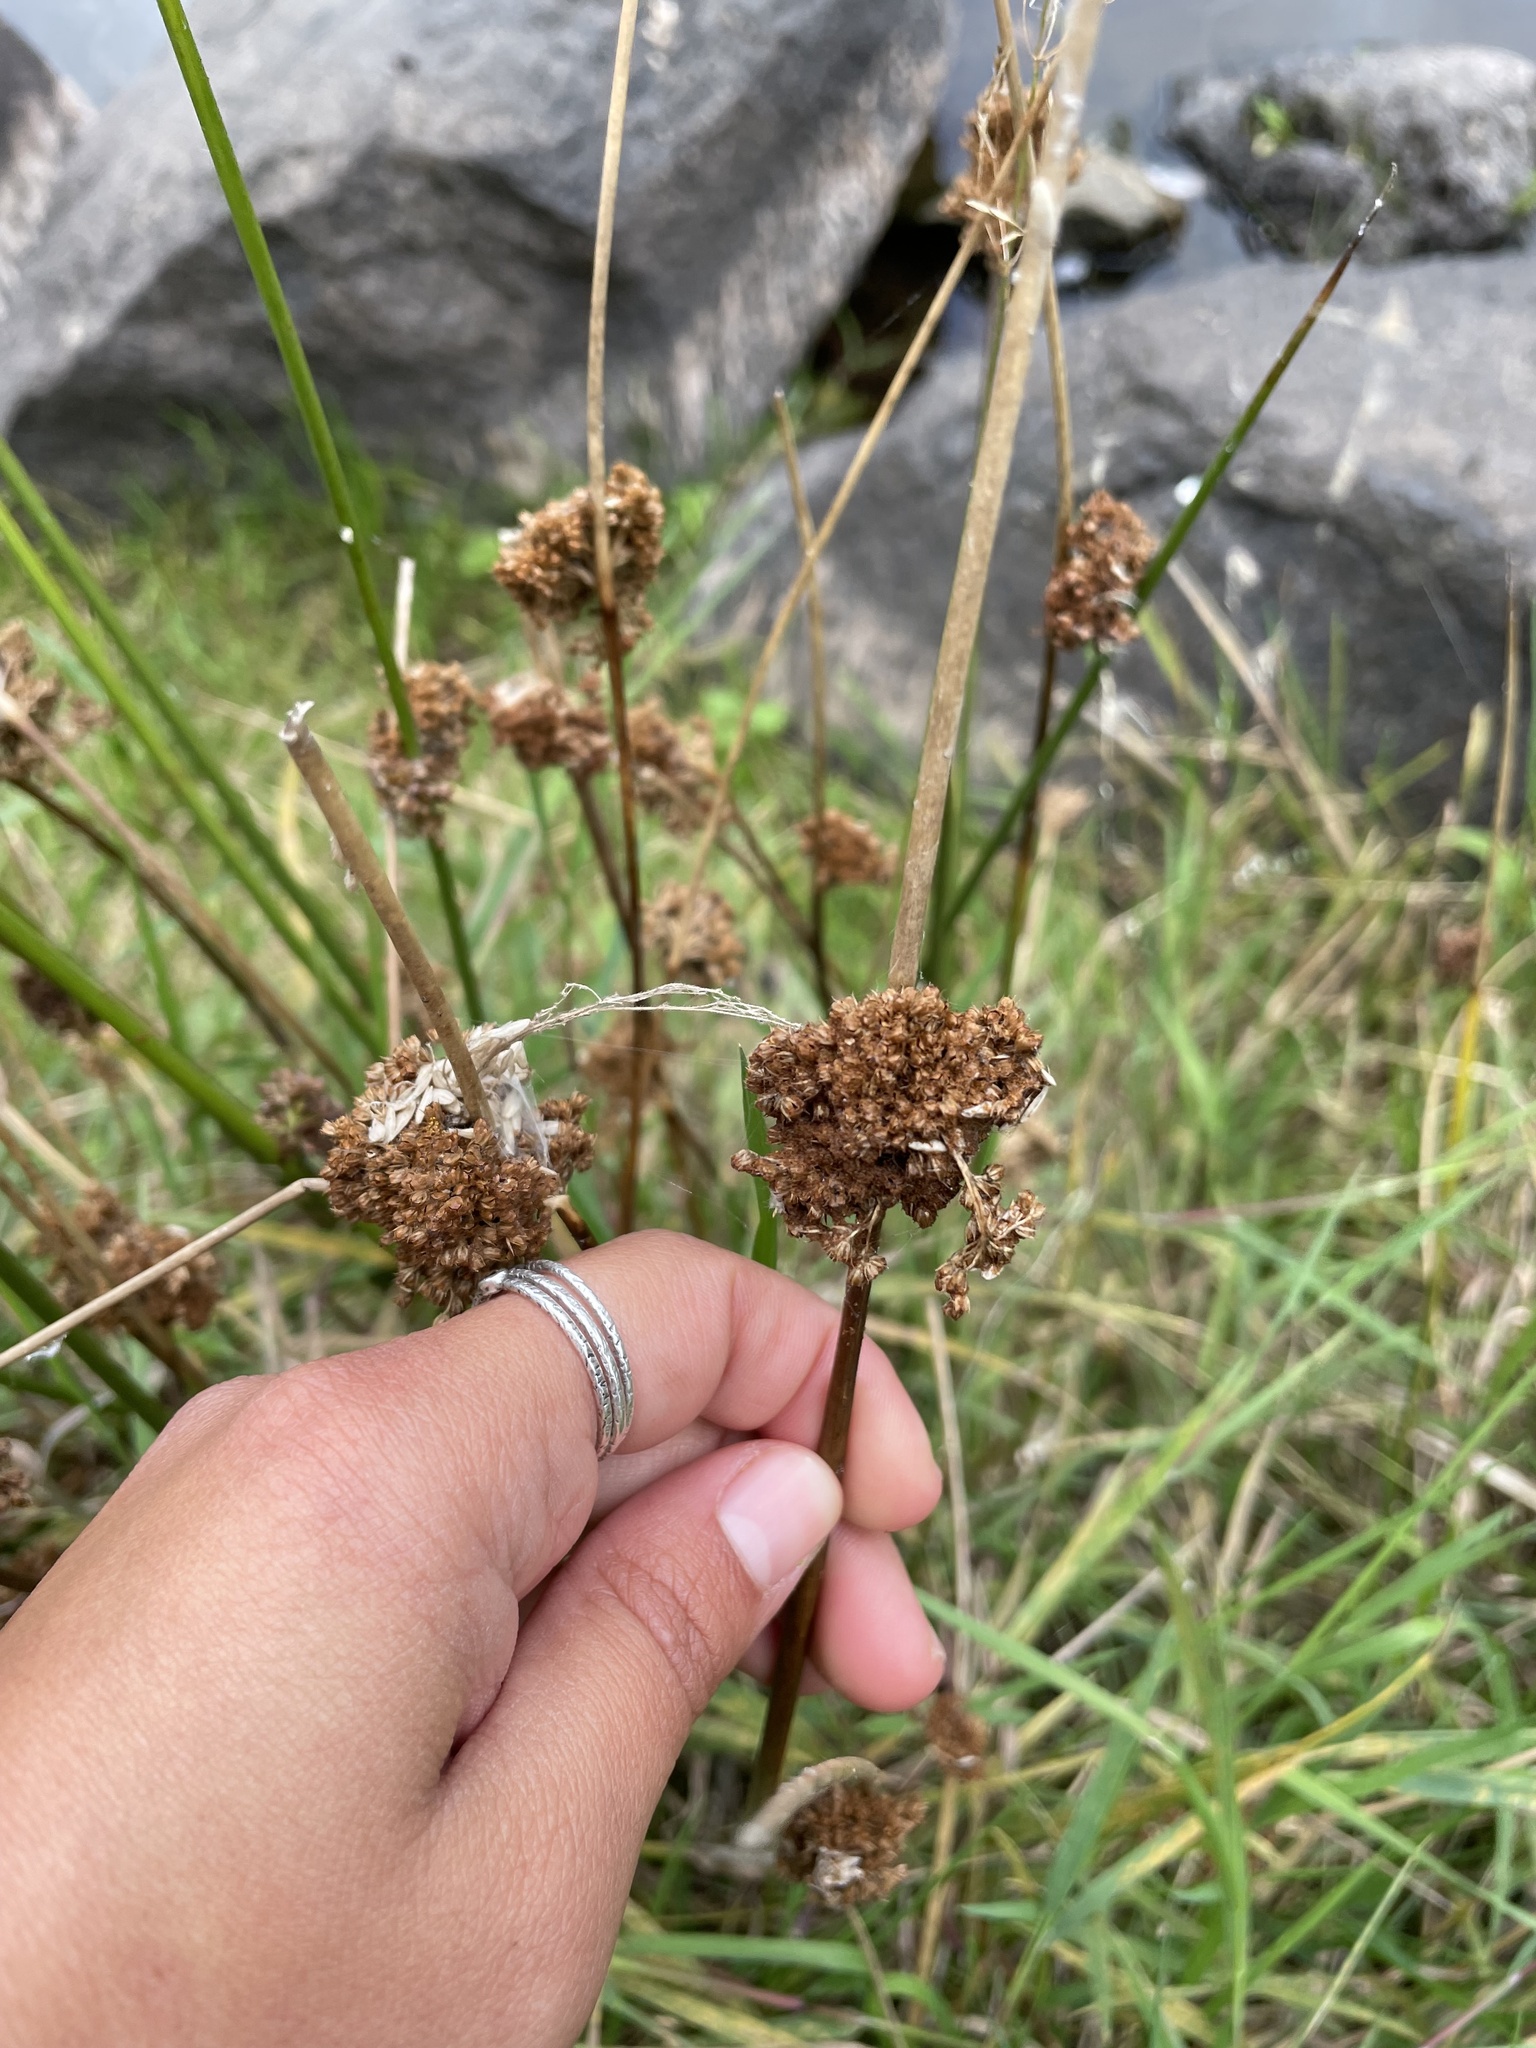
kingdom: Plantae
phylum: Tracheophyta
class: Liliopsida
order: Poales
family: Juncaceae
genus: Juncus
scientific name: Juncus conglomeratus
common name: Compact rush
